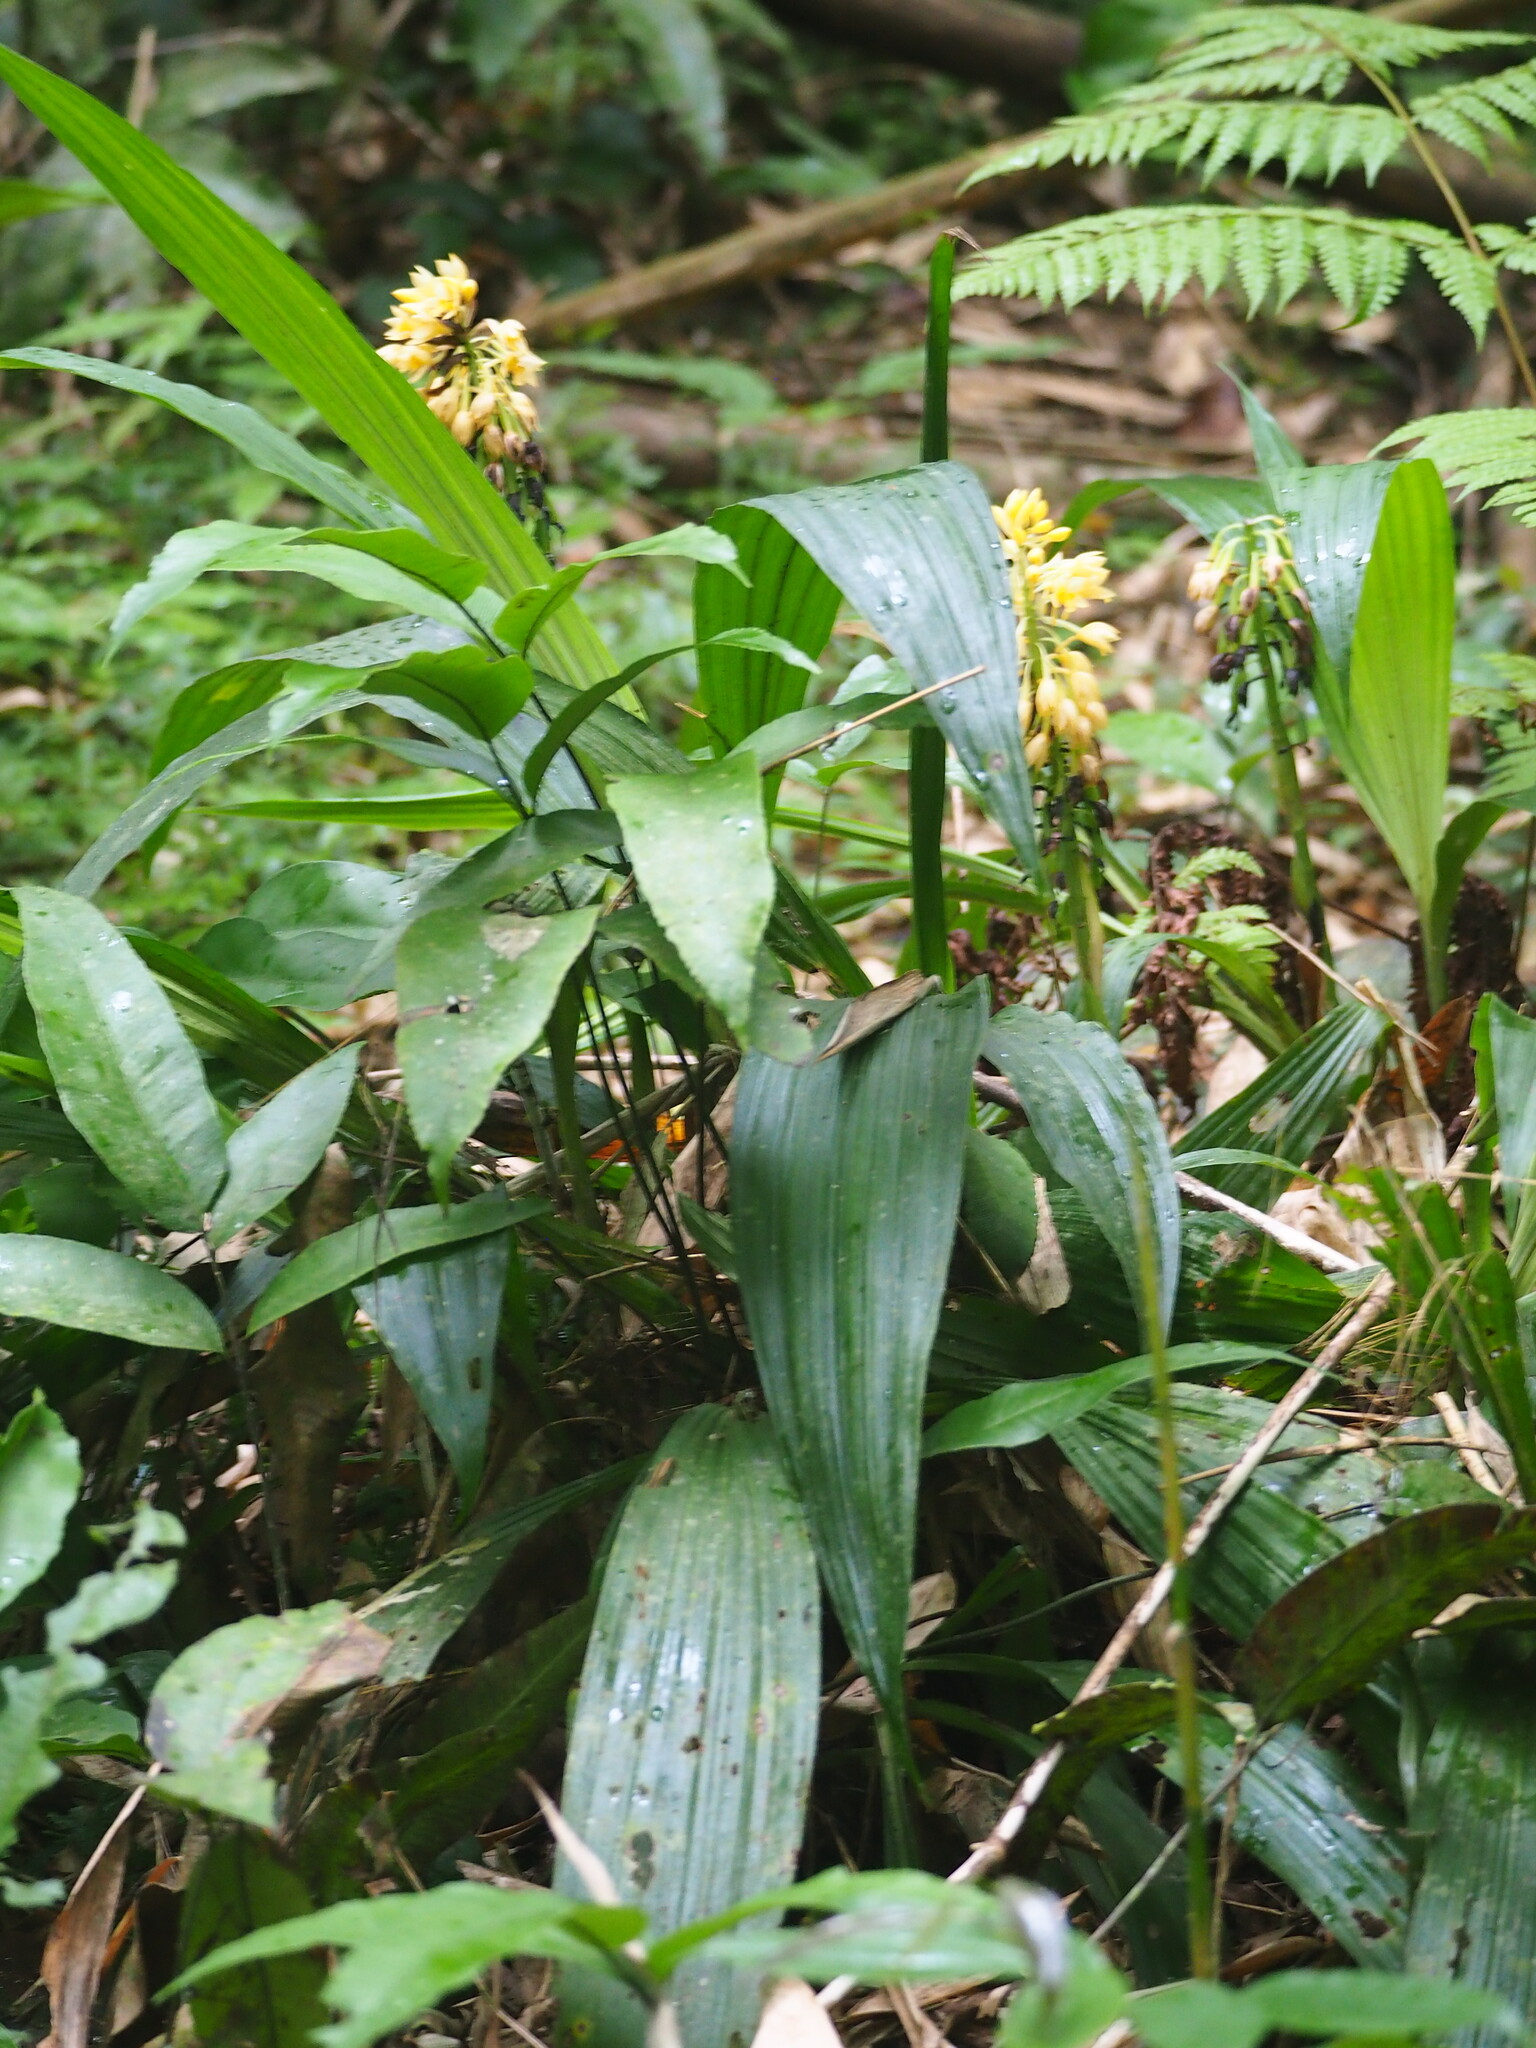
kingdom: Plantae
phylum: Tracheophyta
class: Liliopsida
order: Asparagales
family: Orchidaceae
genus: Calanthe
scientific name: Calanthe formosana
